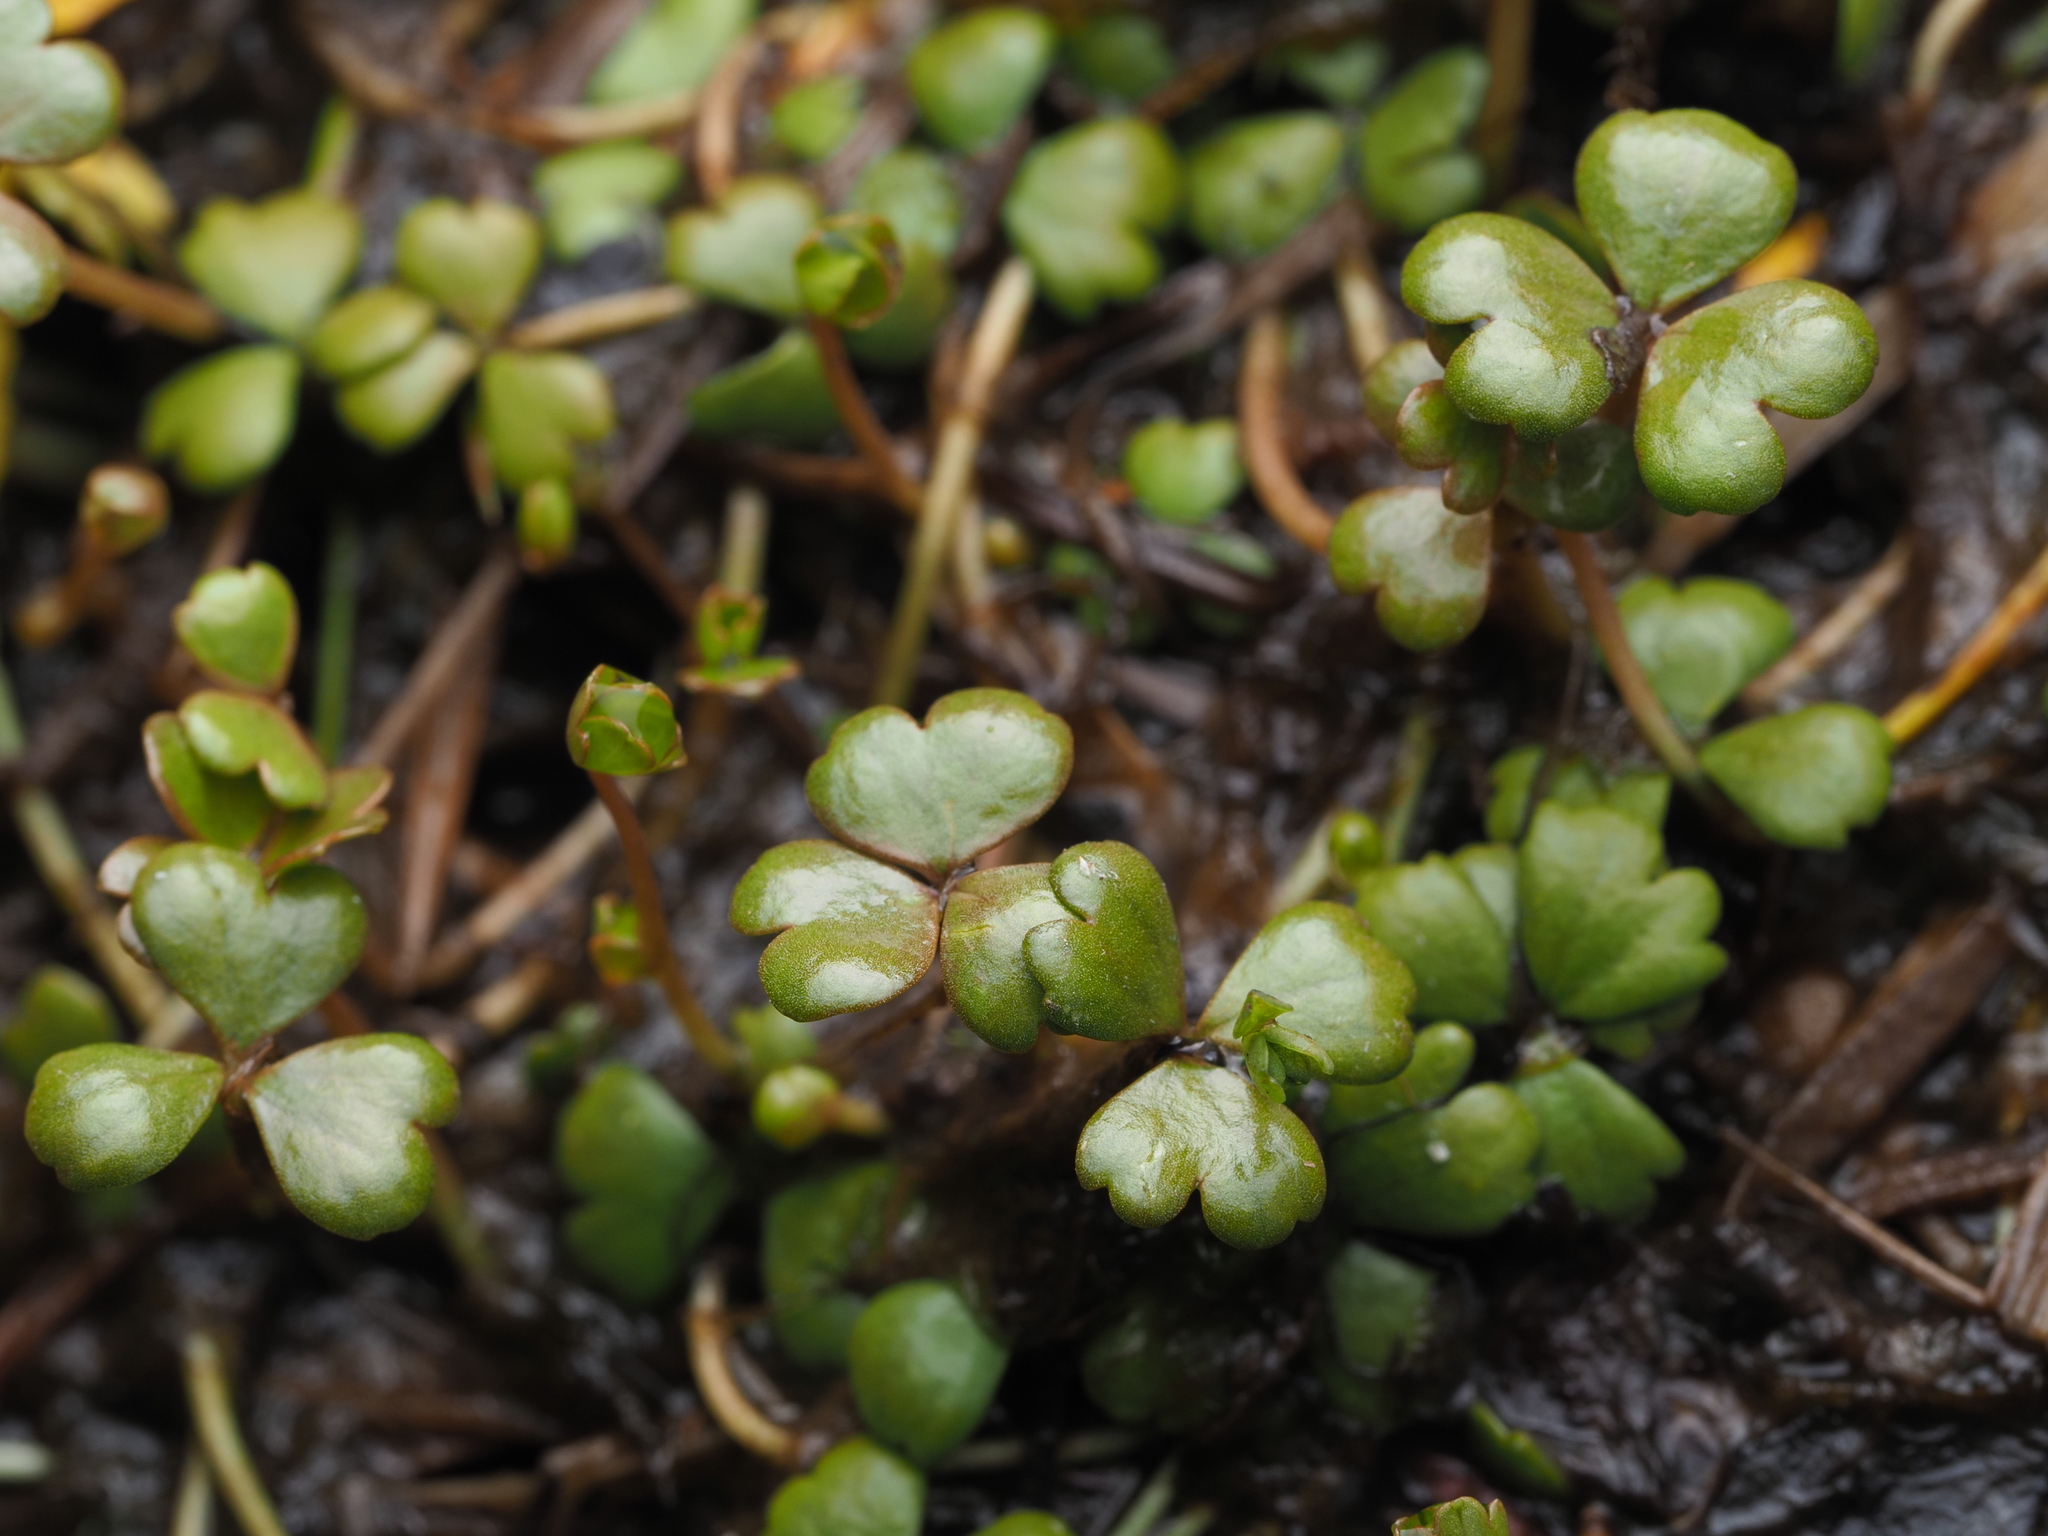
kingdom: Plantae
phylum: Tracheophyta
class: Magnoliopsida
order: Apiales
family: Araliaceae
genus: Hydrocotyle
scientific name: Hydrocotyle sulcata
